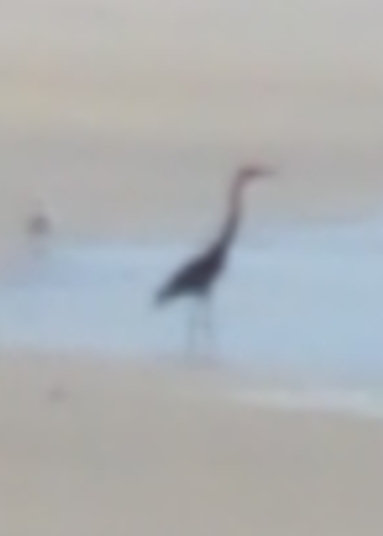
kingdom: Animalia
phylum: Chordata
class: Aves
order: Pelecaniformes
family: Ardeidae
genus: Ardea
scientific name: Ardea herodias
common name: Great blue heron
